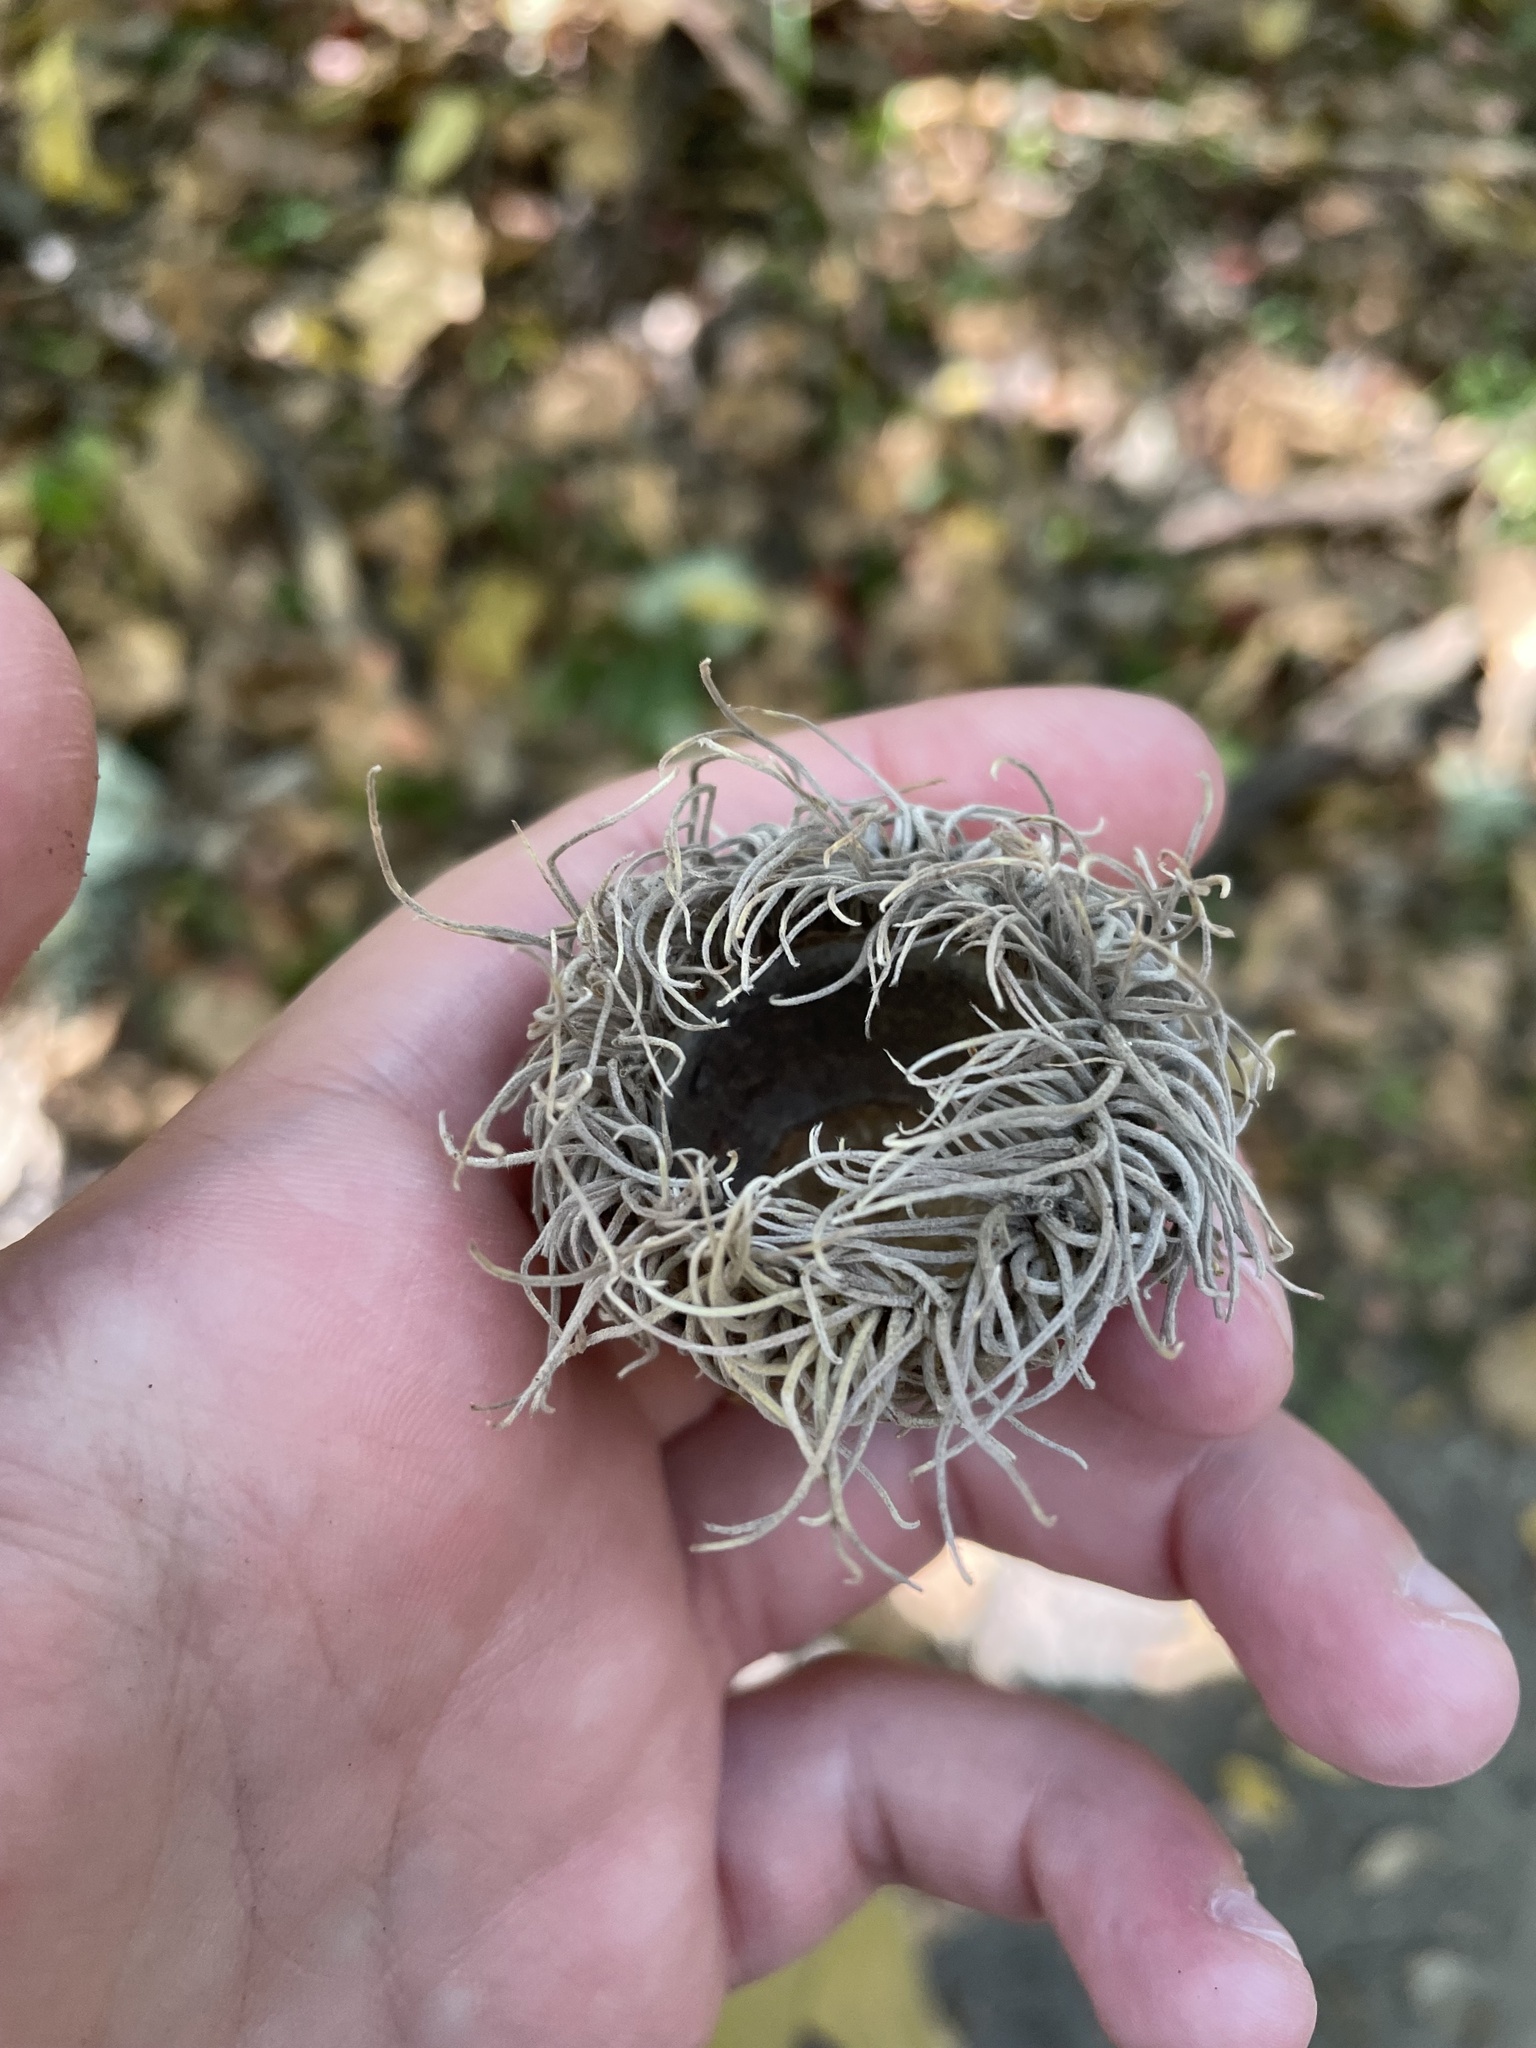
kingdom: Plantae
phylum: Tracheophyta
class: Magnoliopsida
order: Fagales
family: Fagaceae
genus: Quercus
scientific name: Quercus macrocarpa
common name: Bur oak
